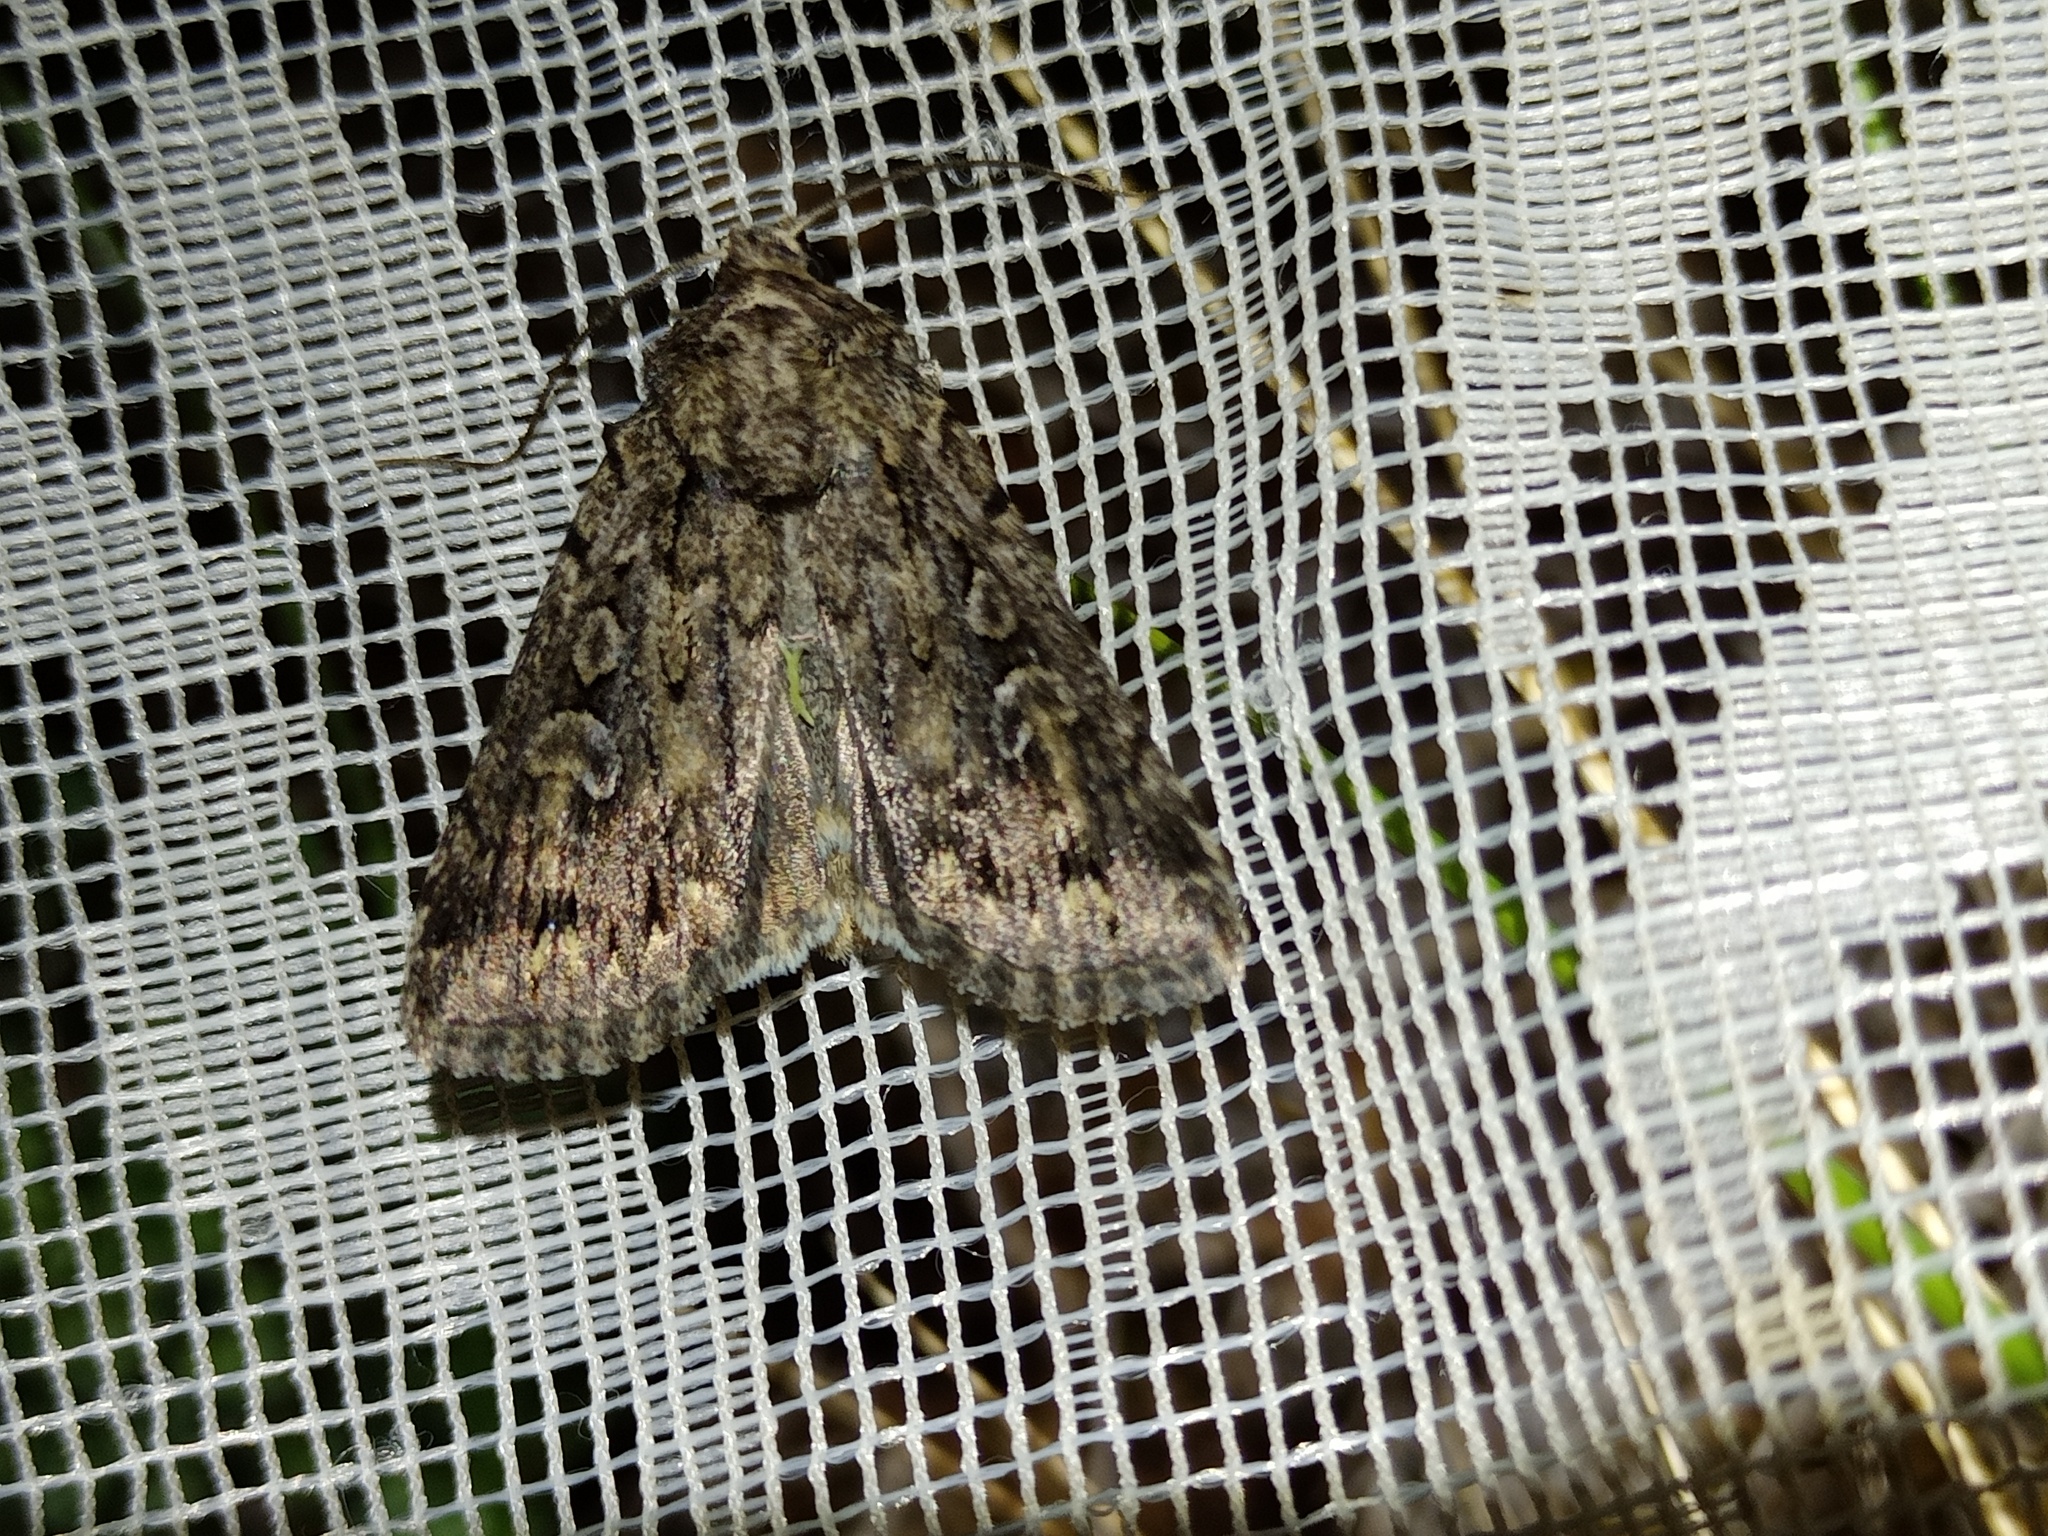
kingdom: Animalia
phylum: Arthropoda
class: Insecta
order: Lepidoptera
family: Noctuidae
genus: Dichagyris
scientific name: Dichagyris nigrescens
